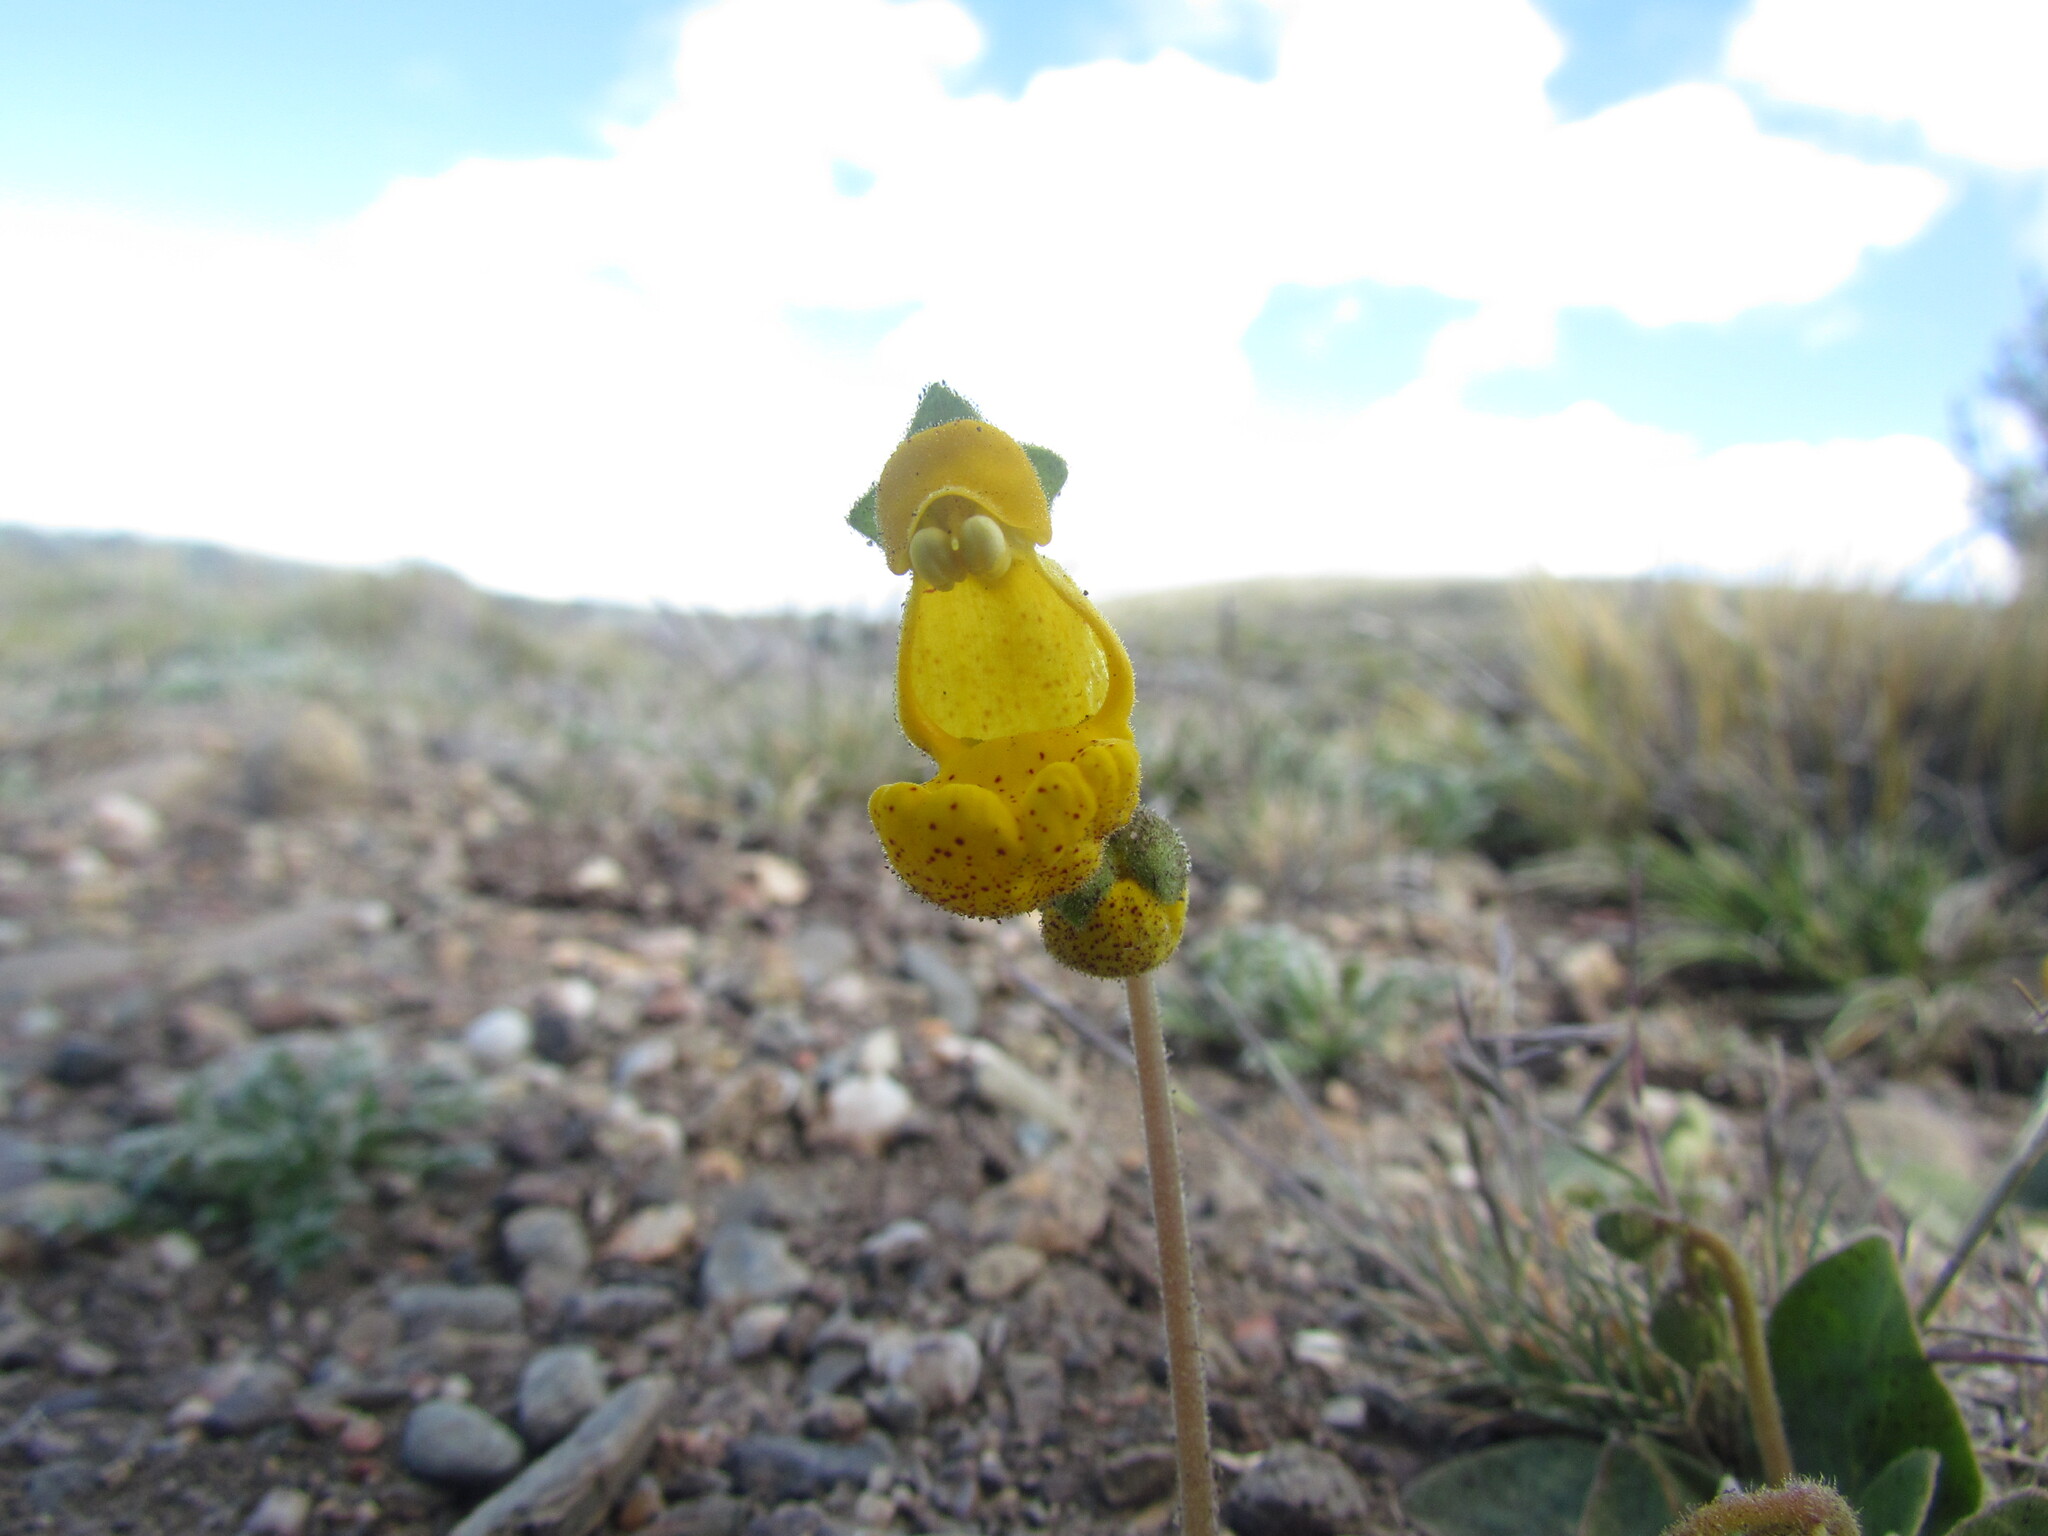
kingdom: Plantae
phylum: Tracheophyta
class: Magnoliopsida
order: Lamiales
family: Calceolariaceae
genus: Calceolaria
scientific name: Calceolaria polyrhiza
